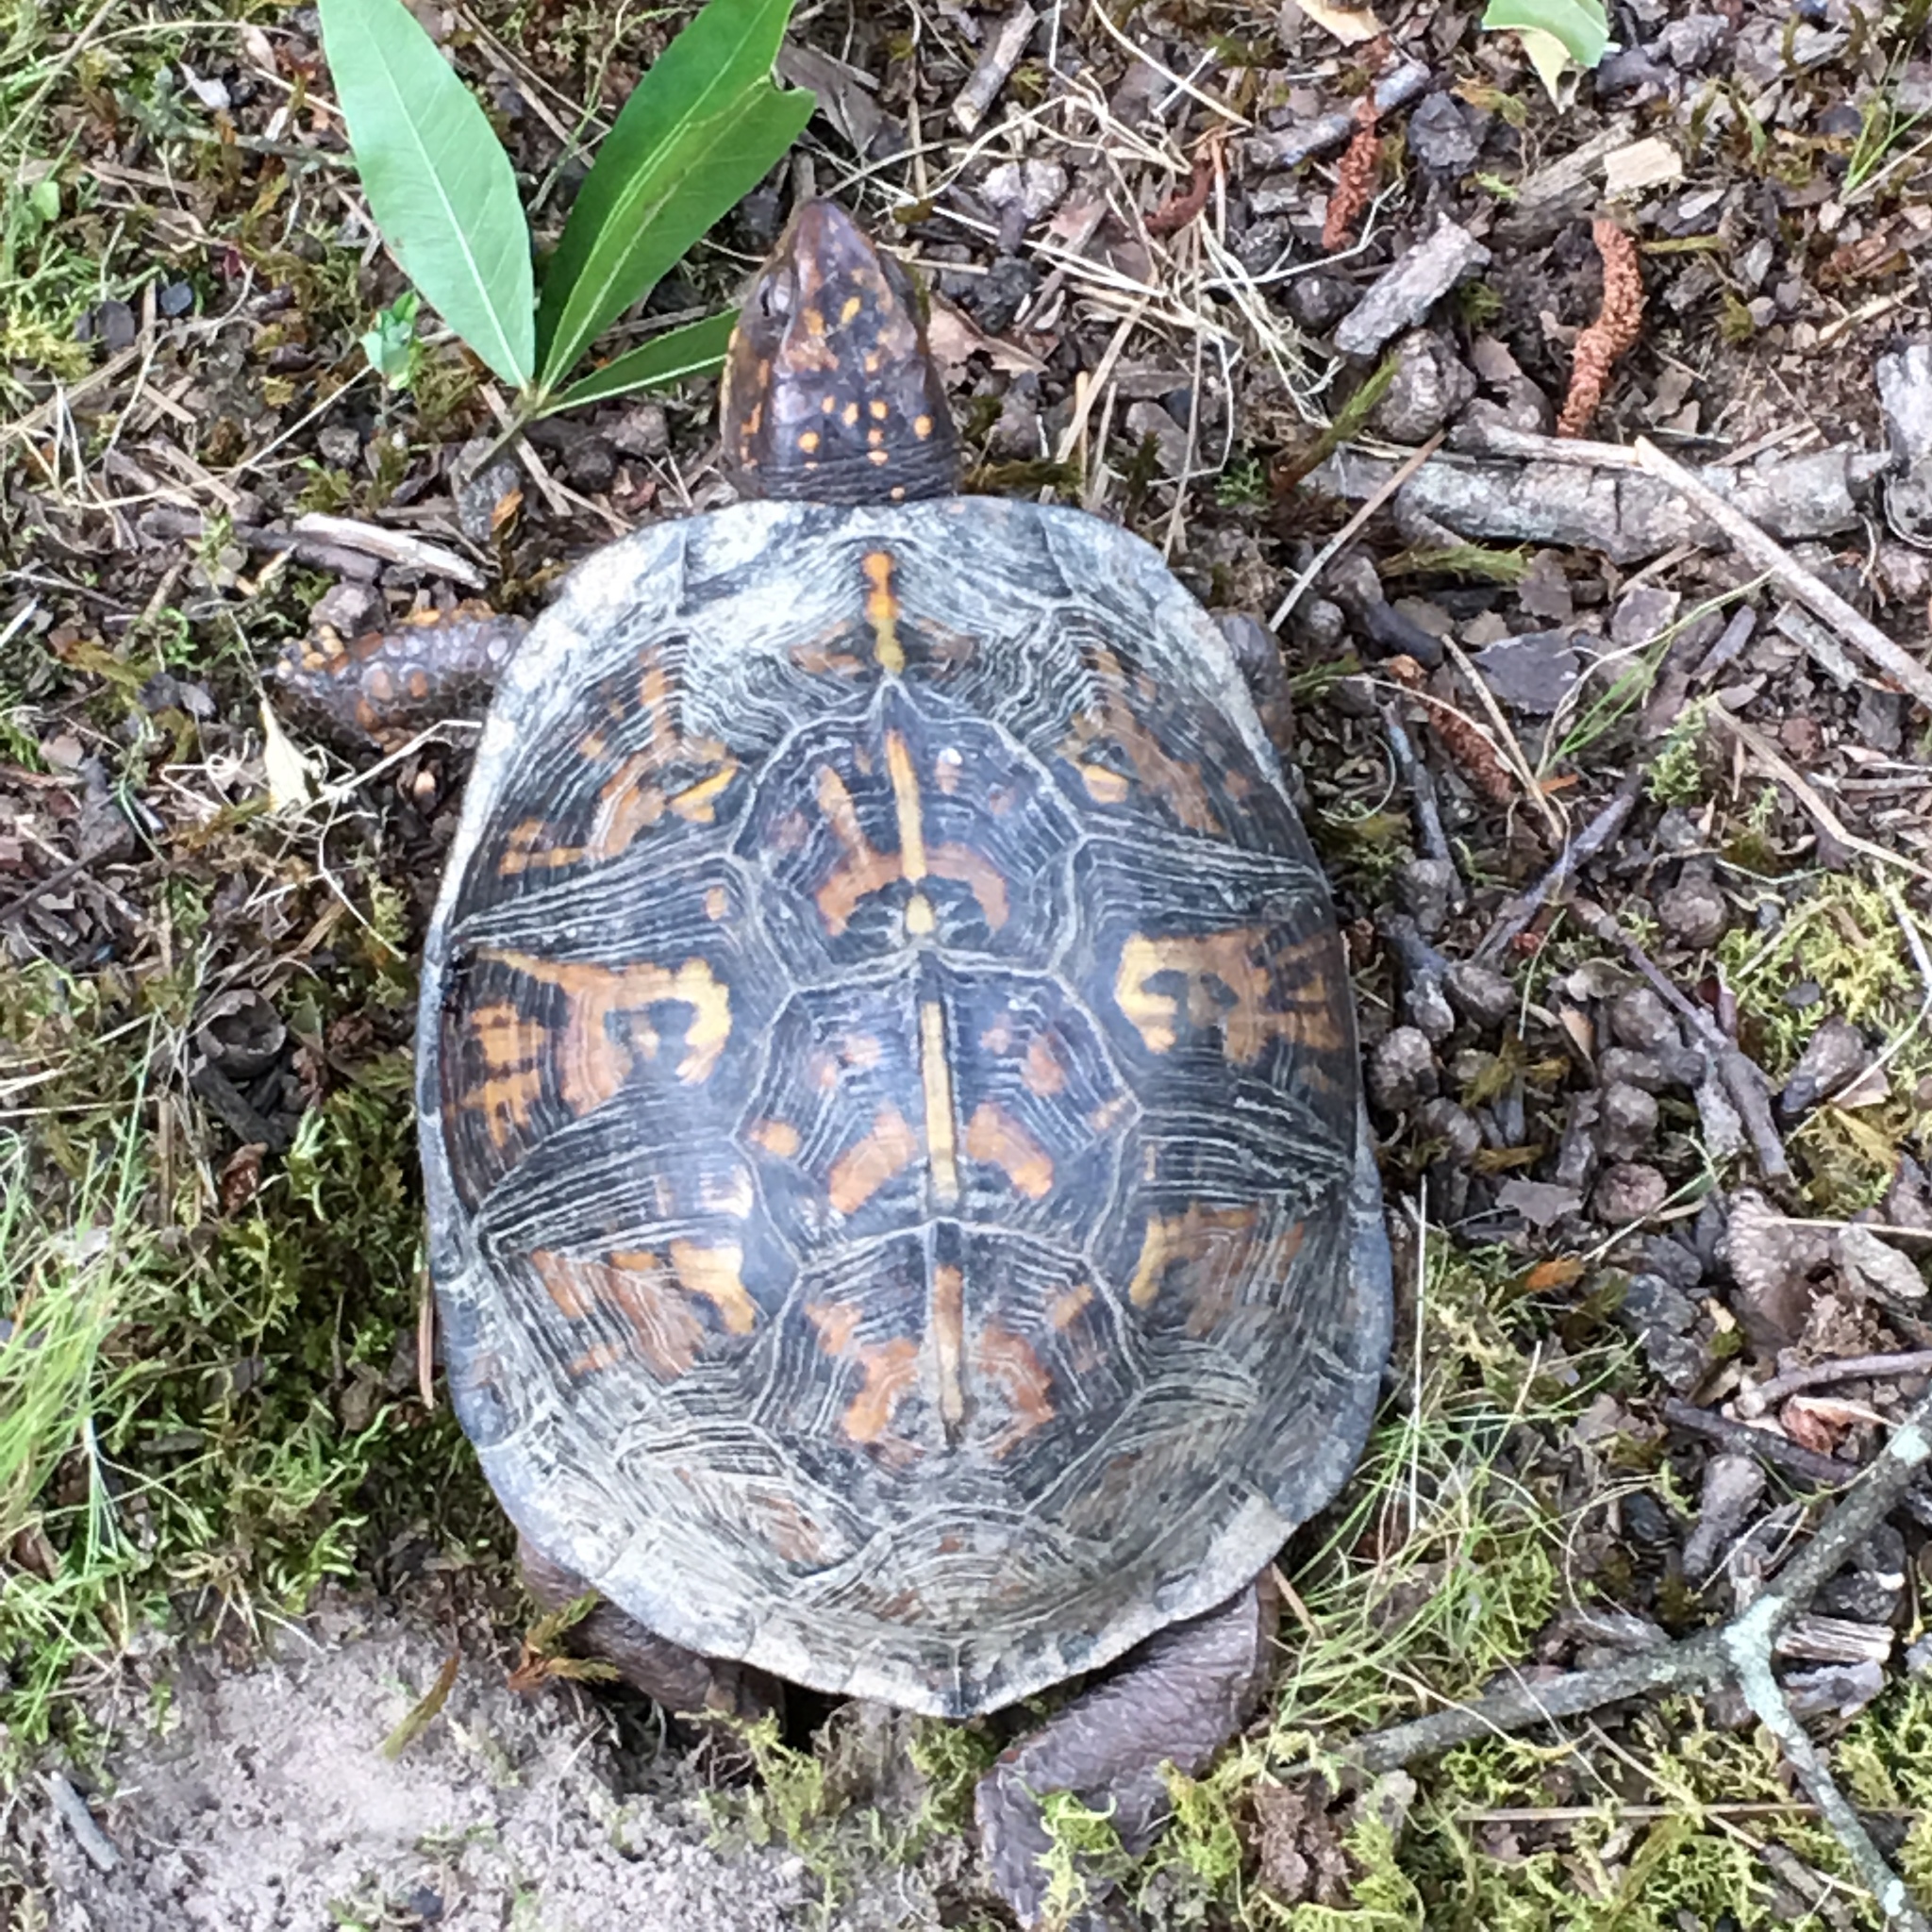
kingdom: Animalia
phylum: Chordata
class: Testudines
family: Emydidae
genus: Terrapene
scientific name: Terrapene carolina
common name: Common box turtle
